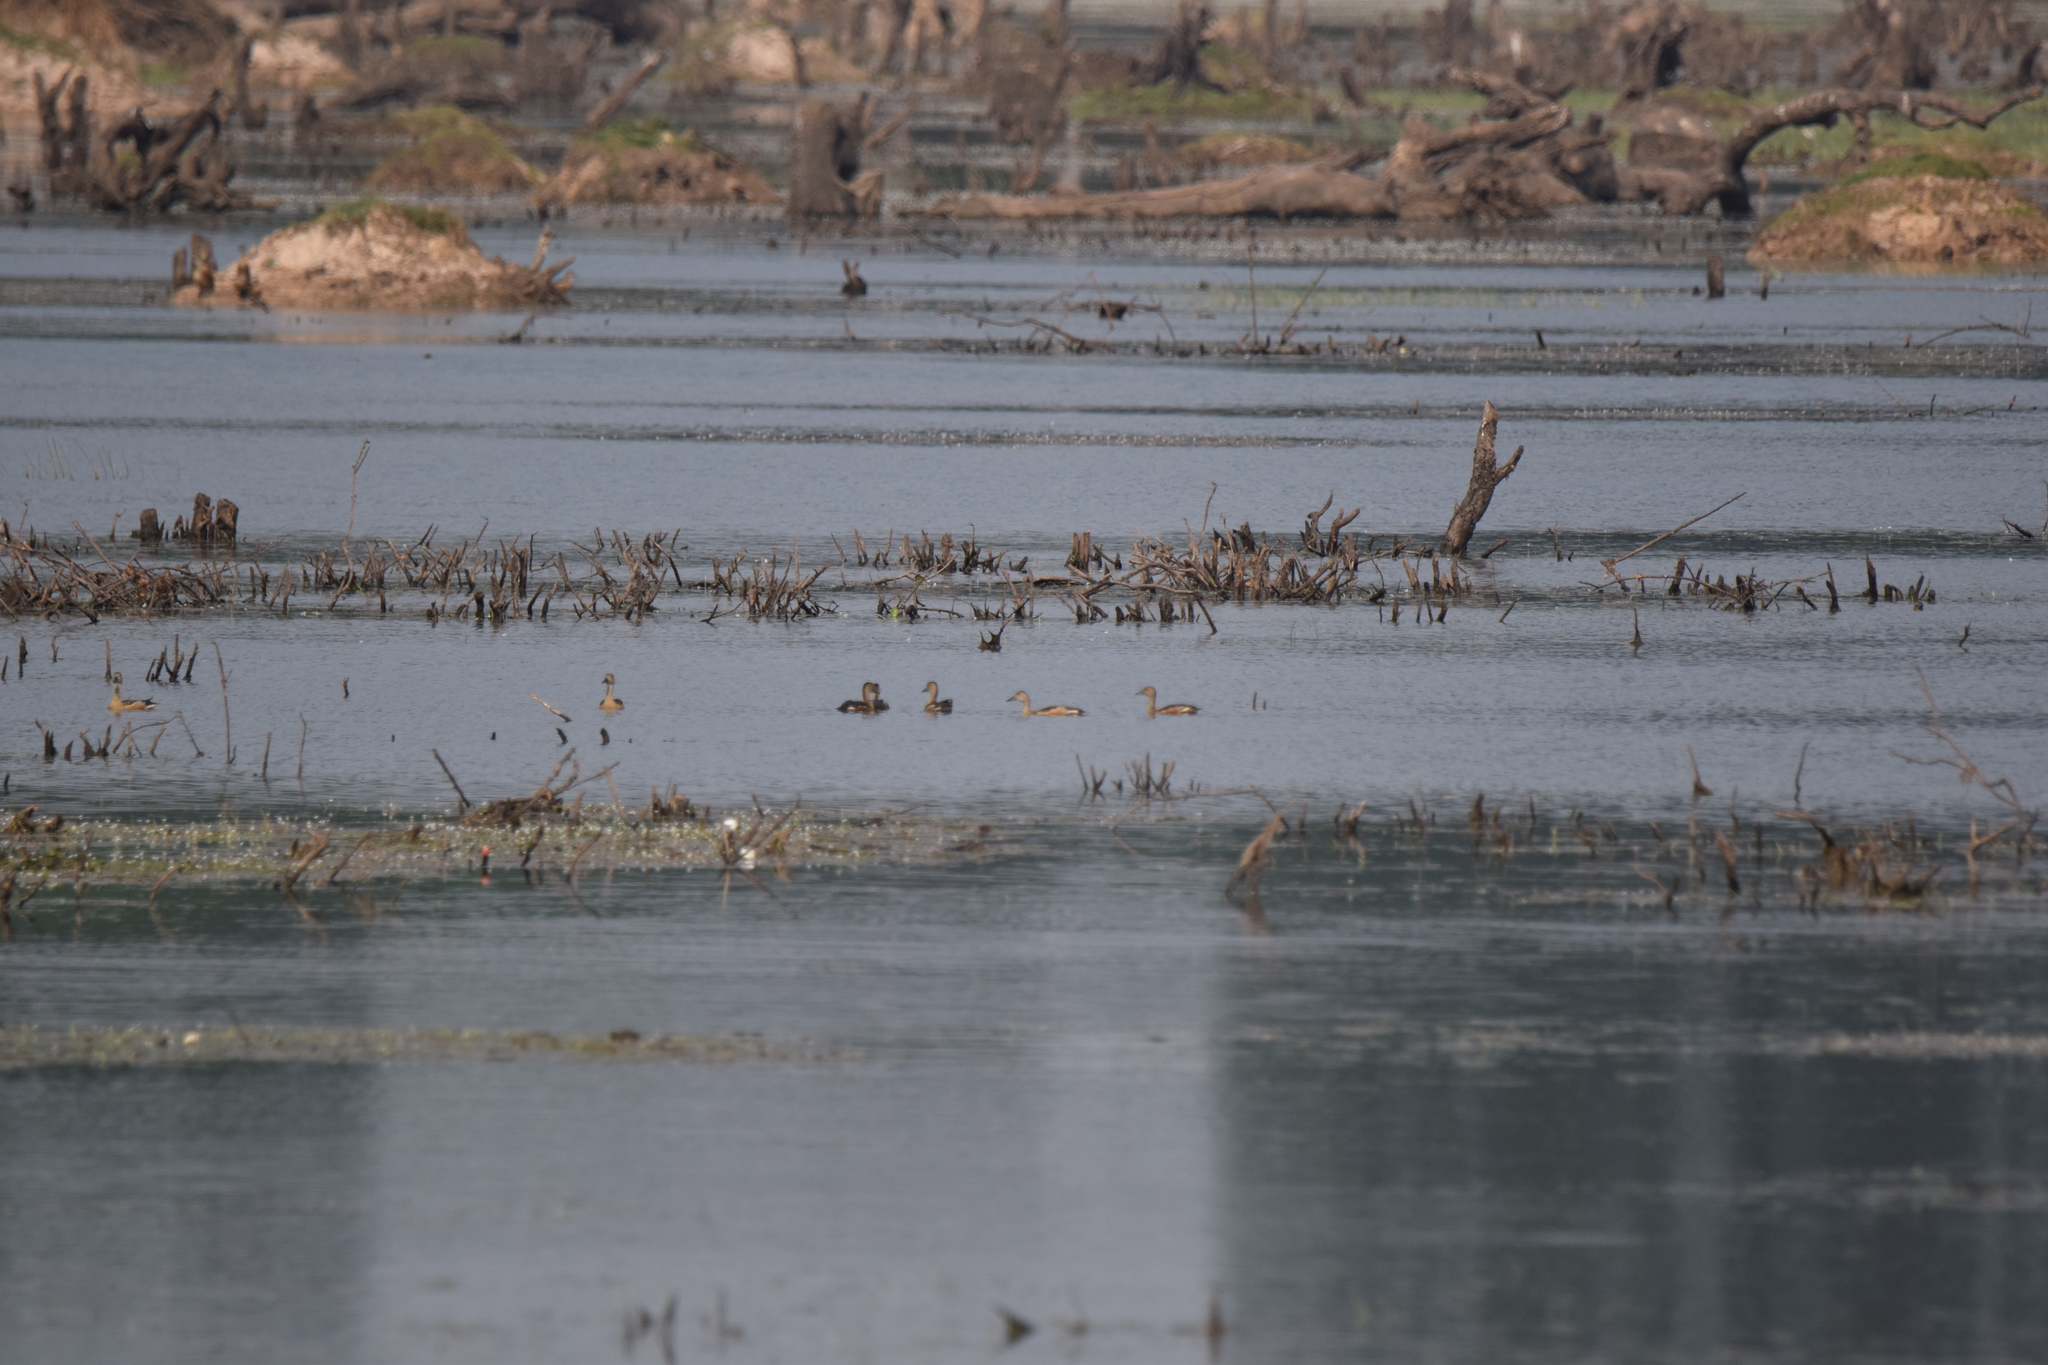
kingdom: Animalia
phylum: Chordata
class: Aves
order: Anseriformes
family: Anatidae
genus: Dendrocygna
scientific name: Dendrocygna javanica
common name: Lesser whistling-duck
